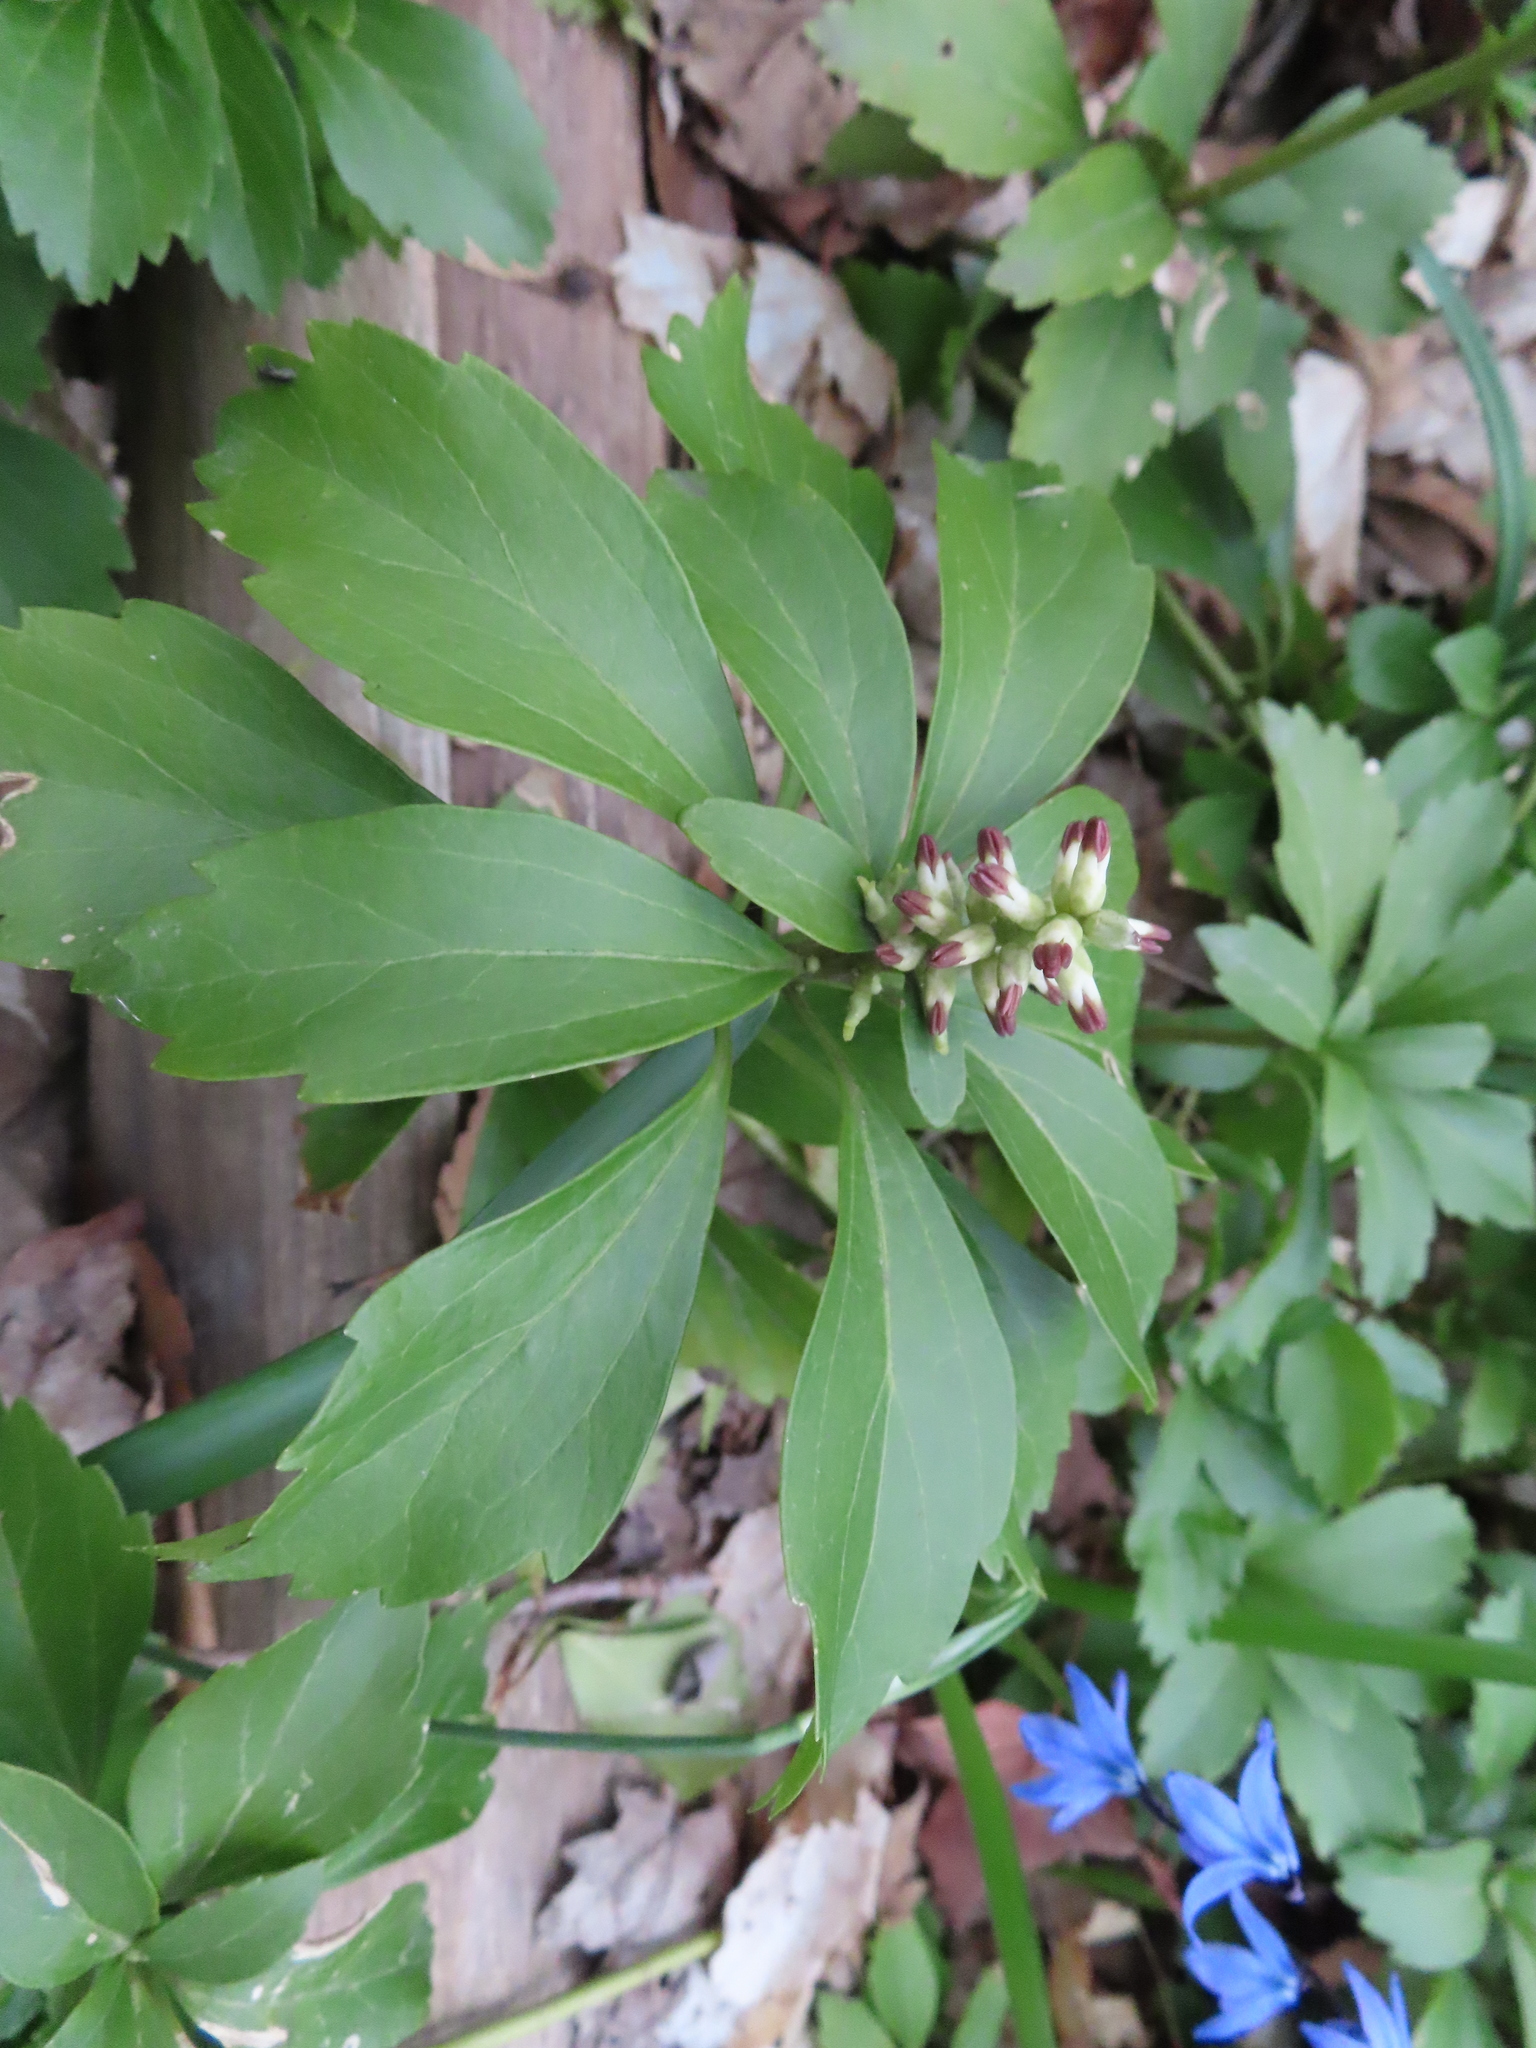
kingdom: Plantae
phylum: Tracheophyta
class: Magnoliopsida
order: Buxales
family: Buxaceae
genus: Pachysandra
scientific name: Pachysandra terminalis
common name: Japanese pachysandra
